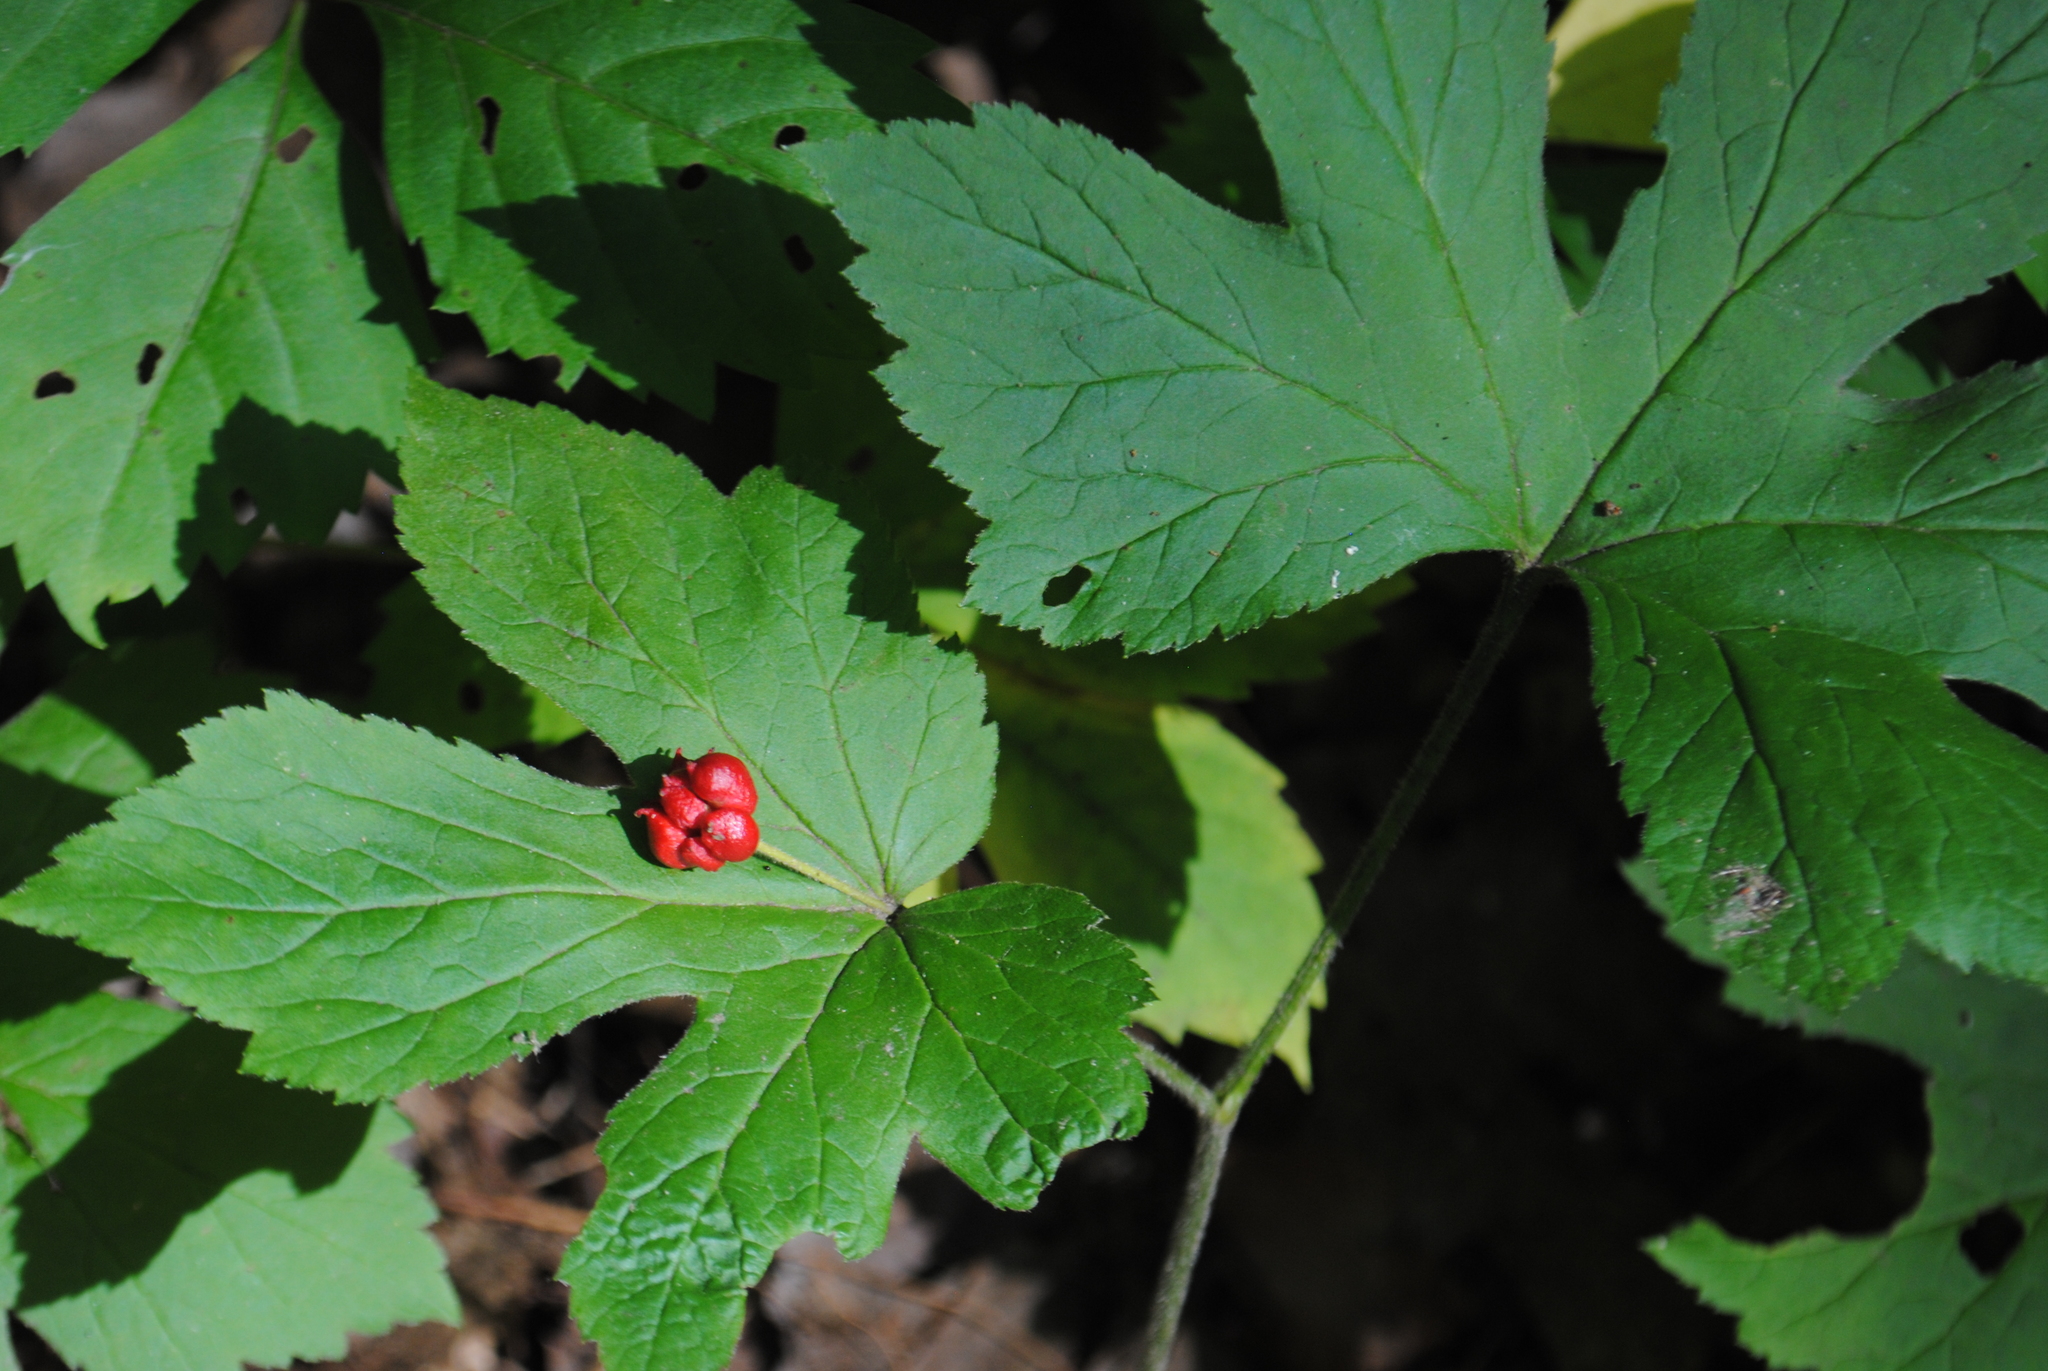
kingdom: Plantae
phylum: Tracheophyta
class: Magnoliopsida
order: Ranunculales
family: Ranunculaceae
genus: Hydrastis
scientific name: Hydrastis canadensis
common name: Goldenseal
